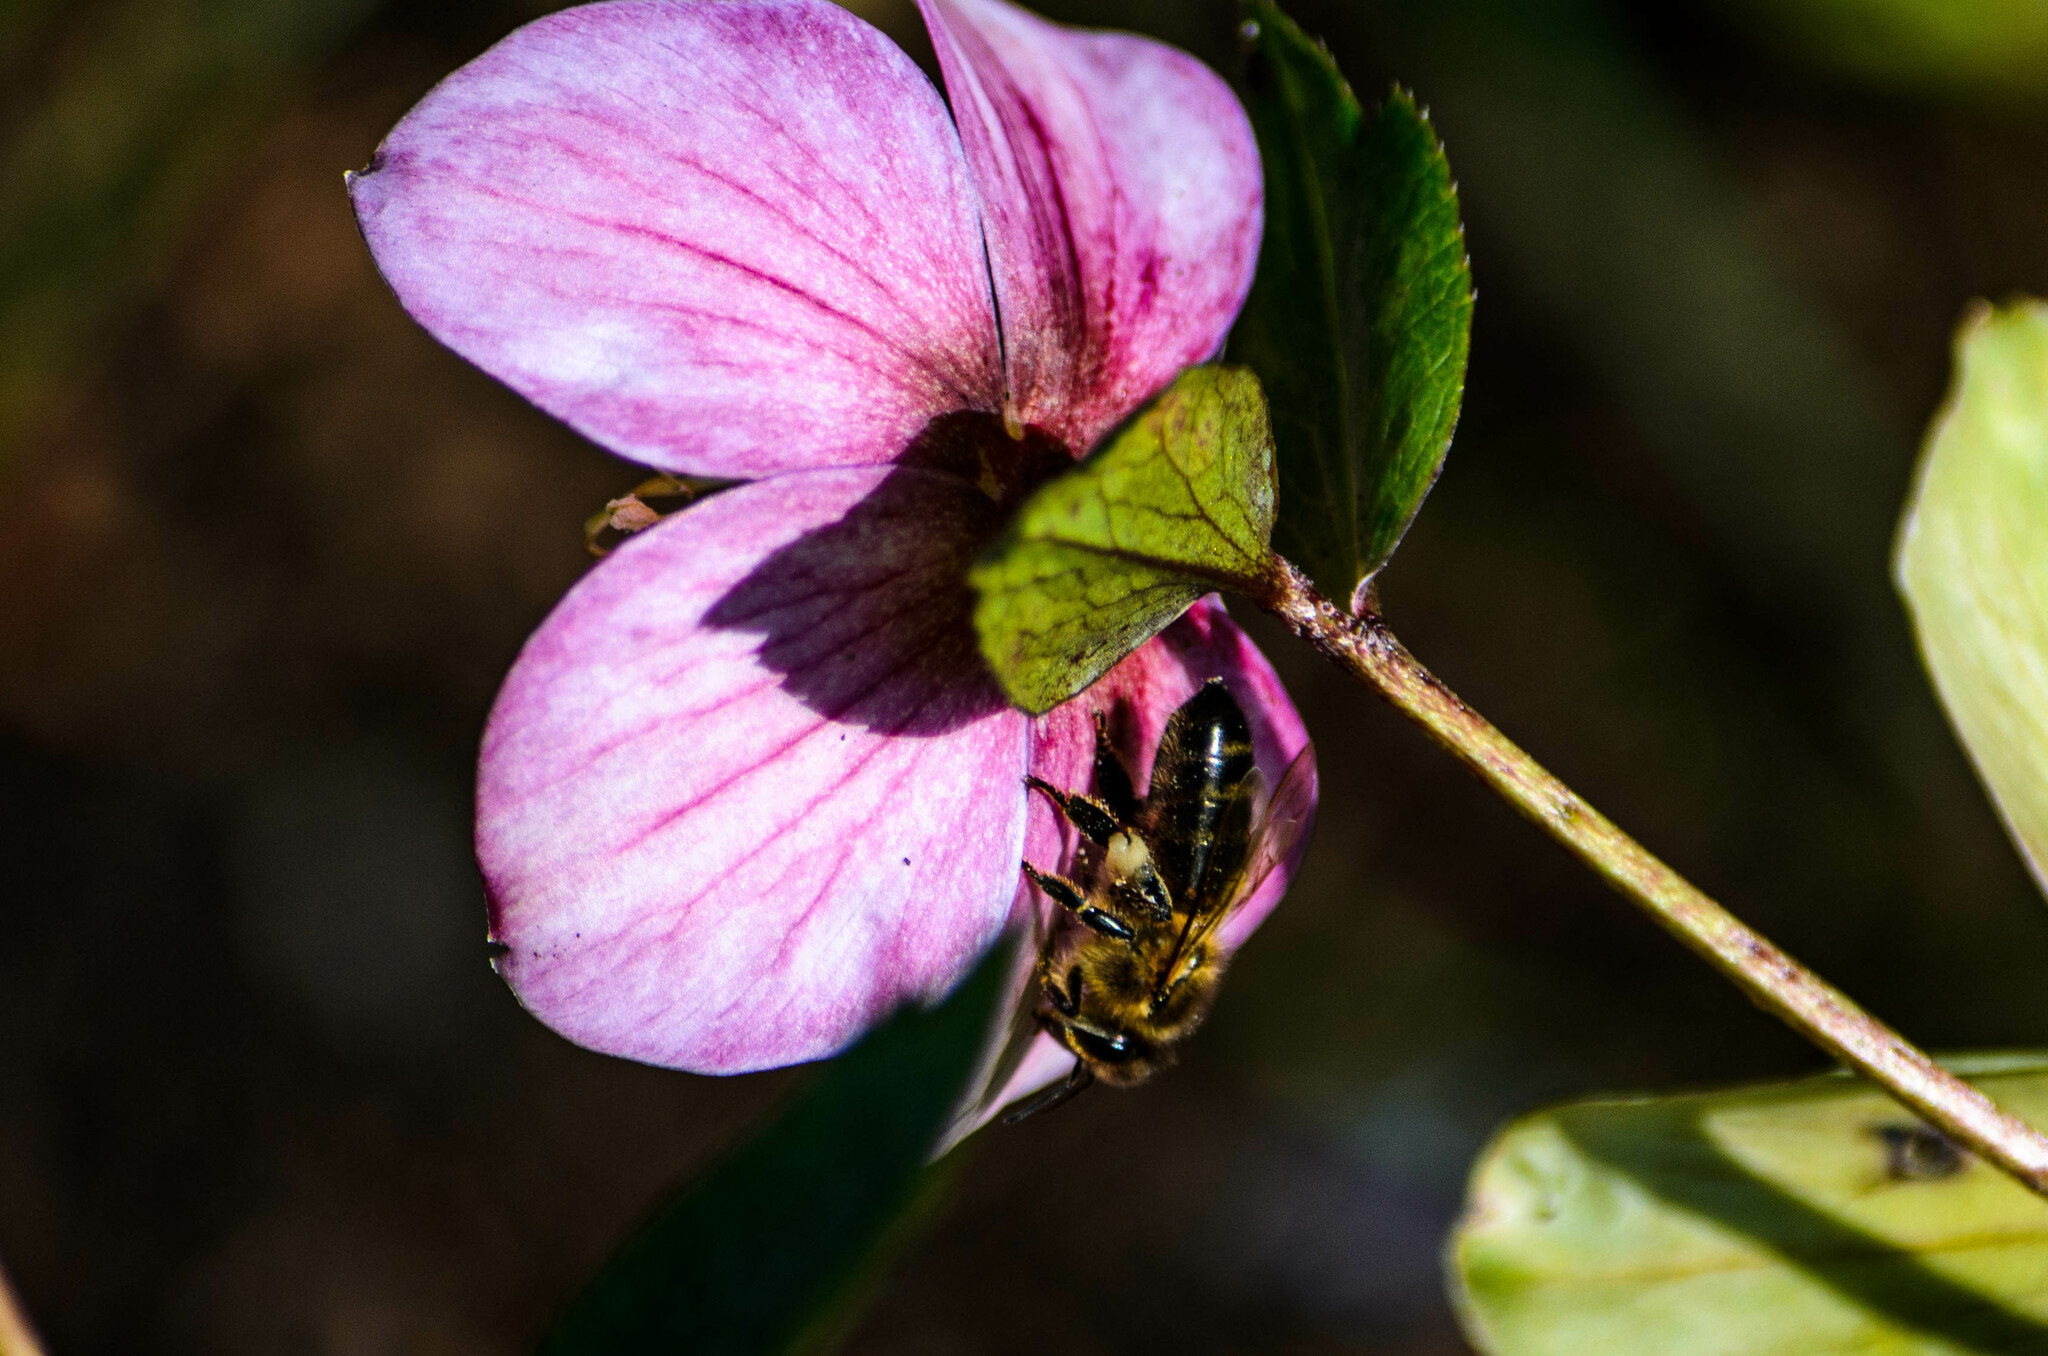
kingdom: Animalia
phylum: Arthropoda
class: Insecta
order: Hymenoptera
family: Apidae
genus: Apis
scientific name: Apis mellifera
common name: Honey bee
